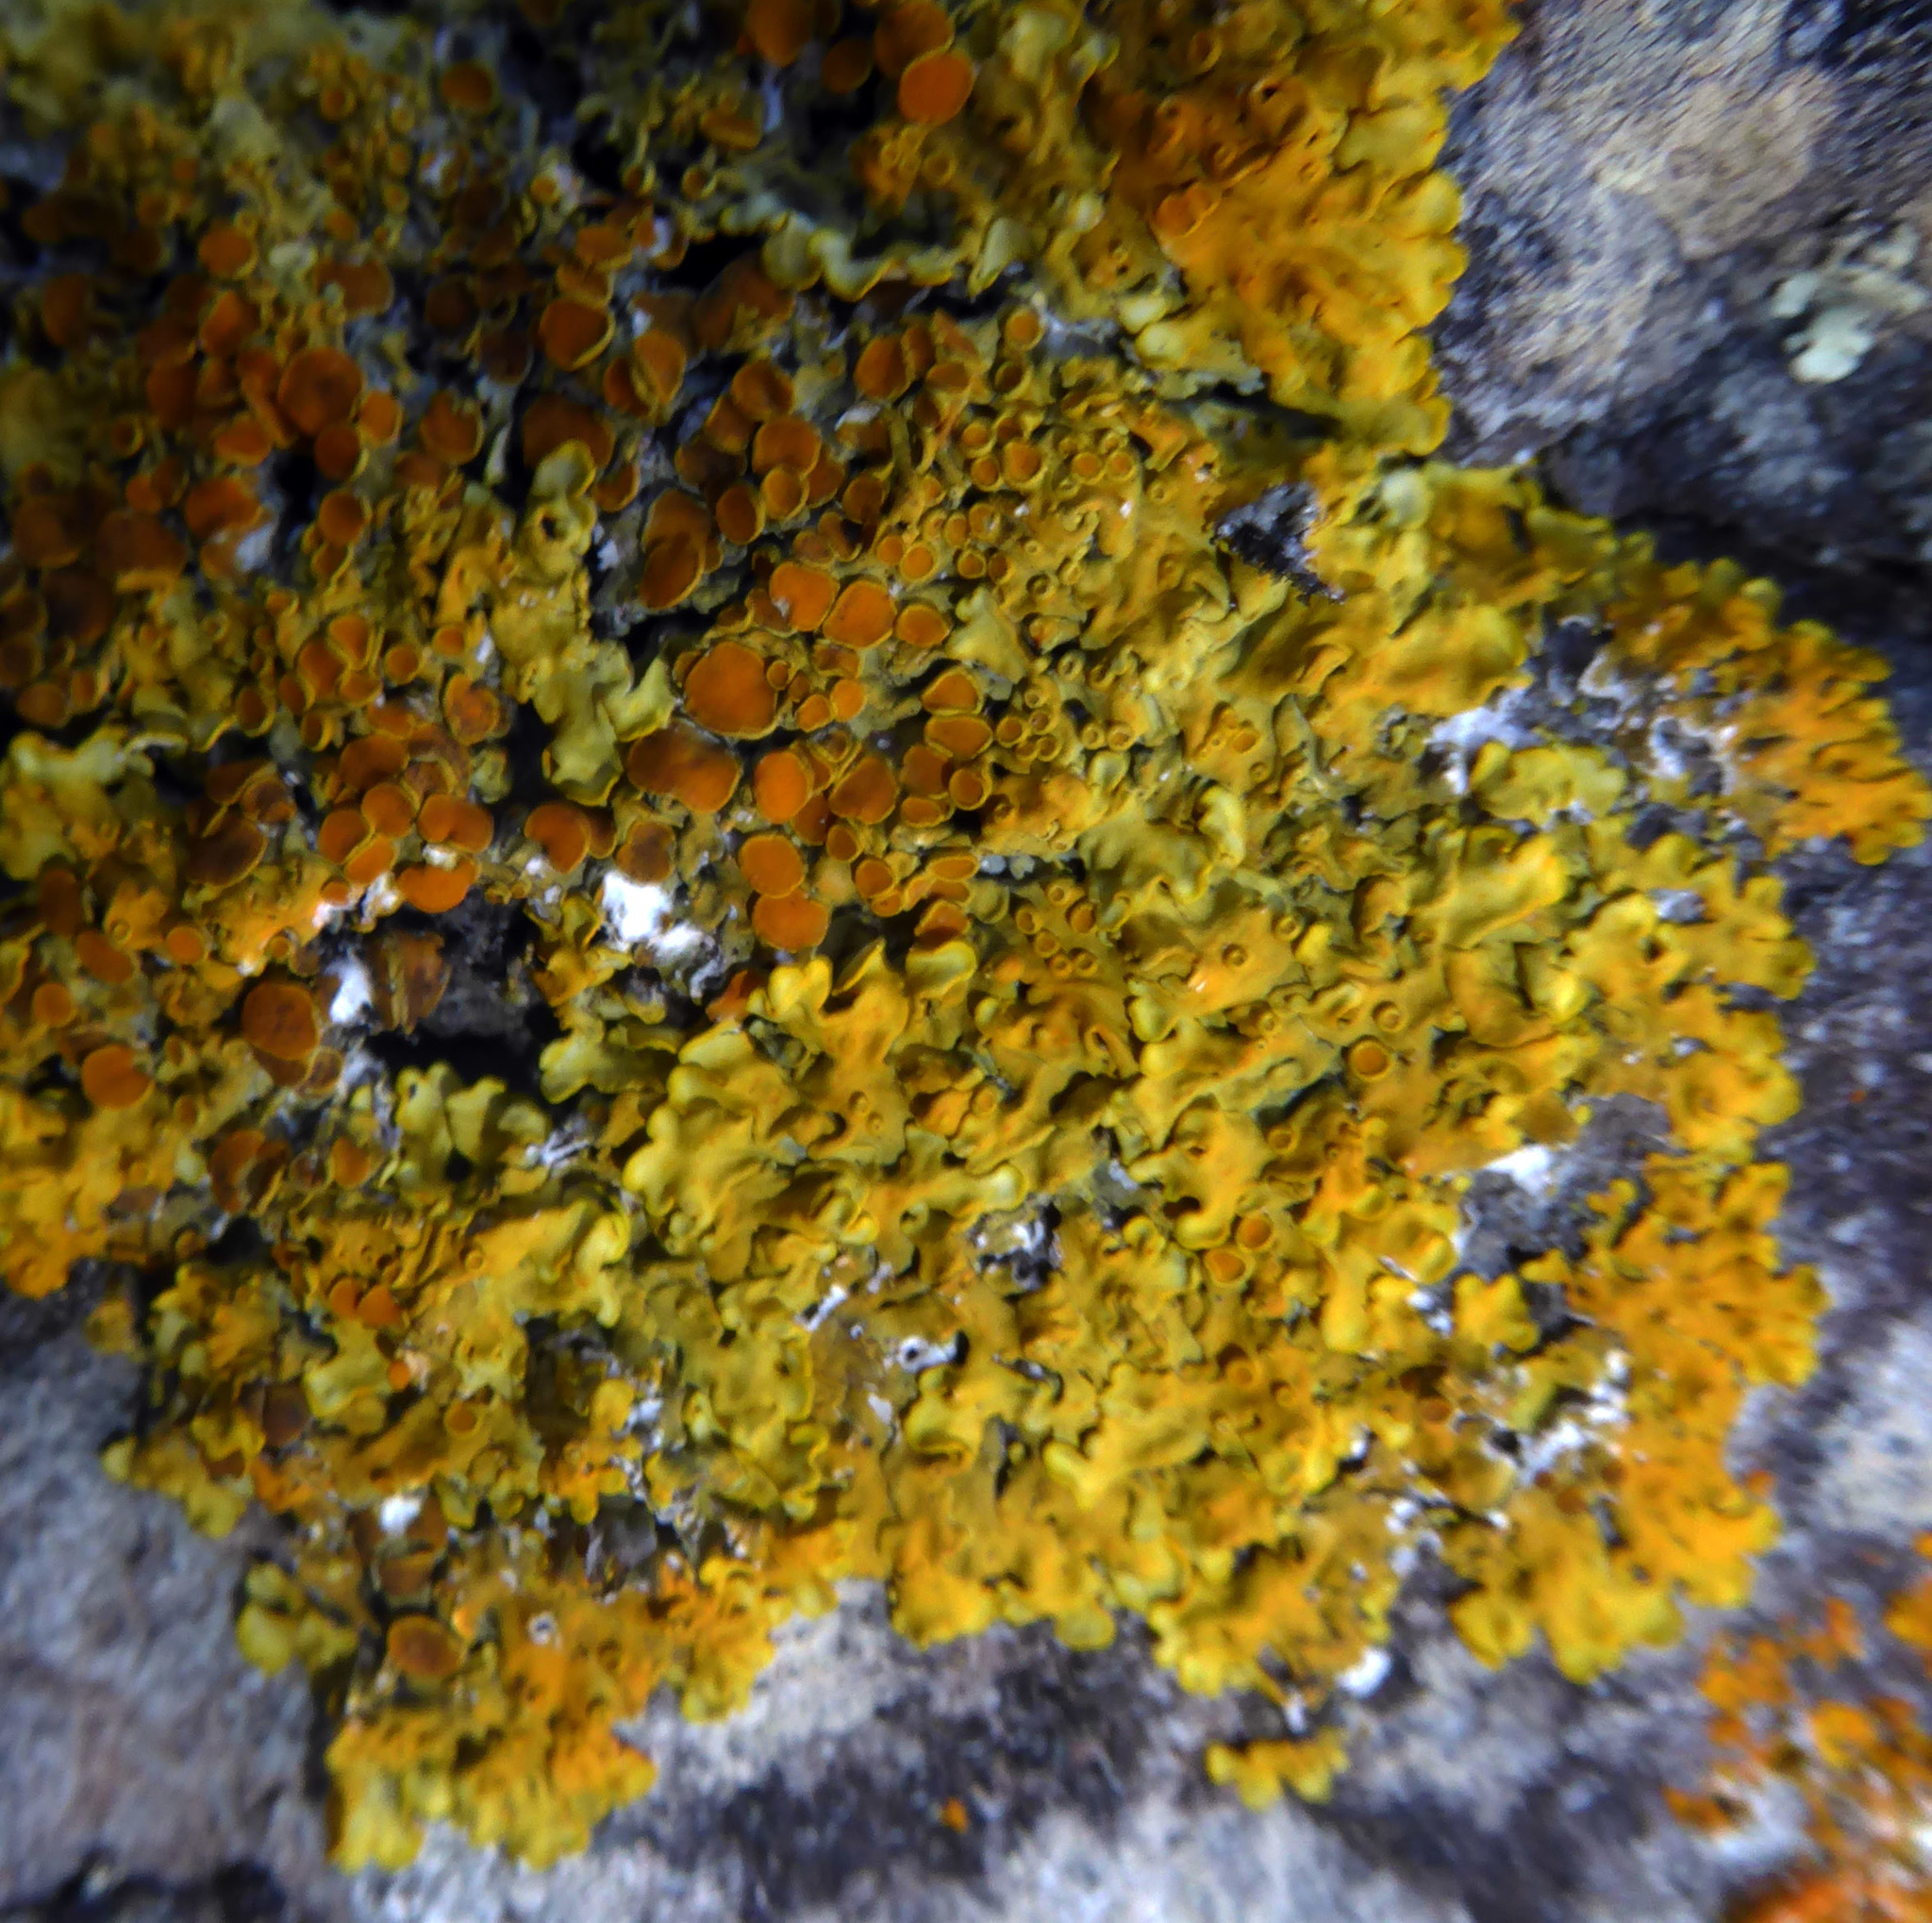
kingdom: Fungi
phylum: Ascomycota
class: Lecanoromycetes
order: Teloschistales
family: Teloschistaceae
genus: Xanthoria
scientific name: Xanthoria parietina
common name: Common orange lichen
